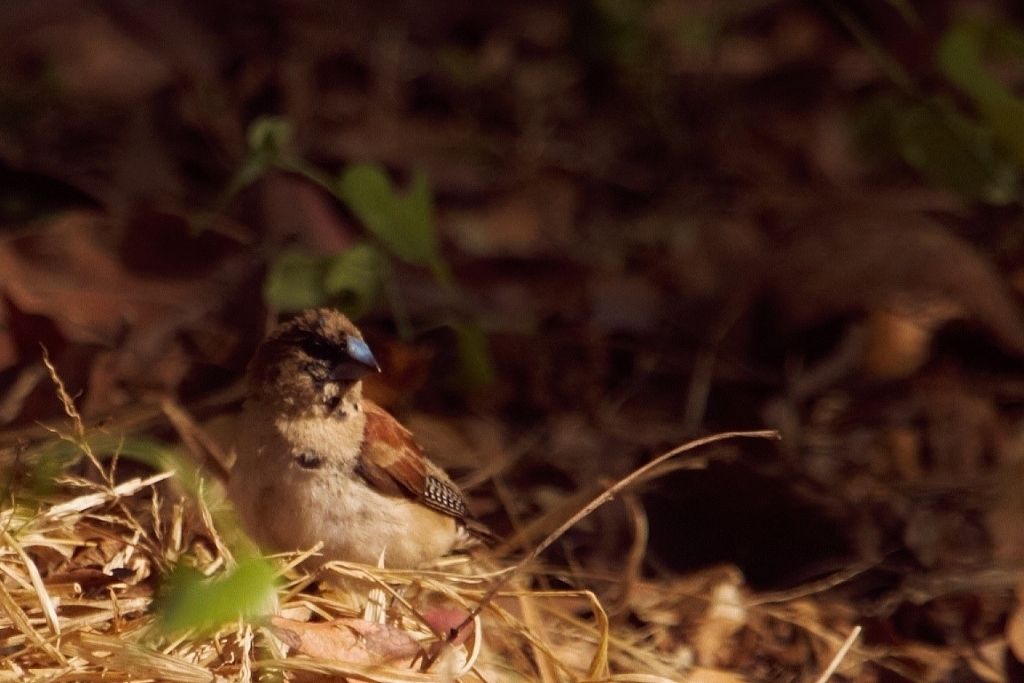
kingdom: Animalia
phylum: Chordata
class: Aves
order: Passeriformes
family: Estrildidae
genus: Lonchura
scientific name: Lonchura nigriceps
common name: Red-backed mannikin
